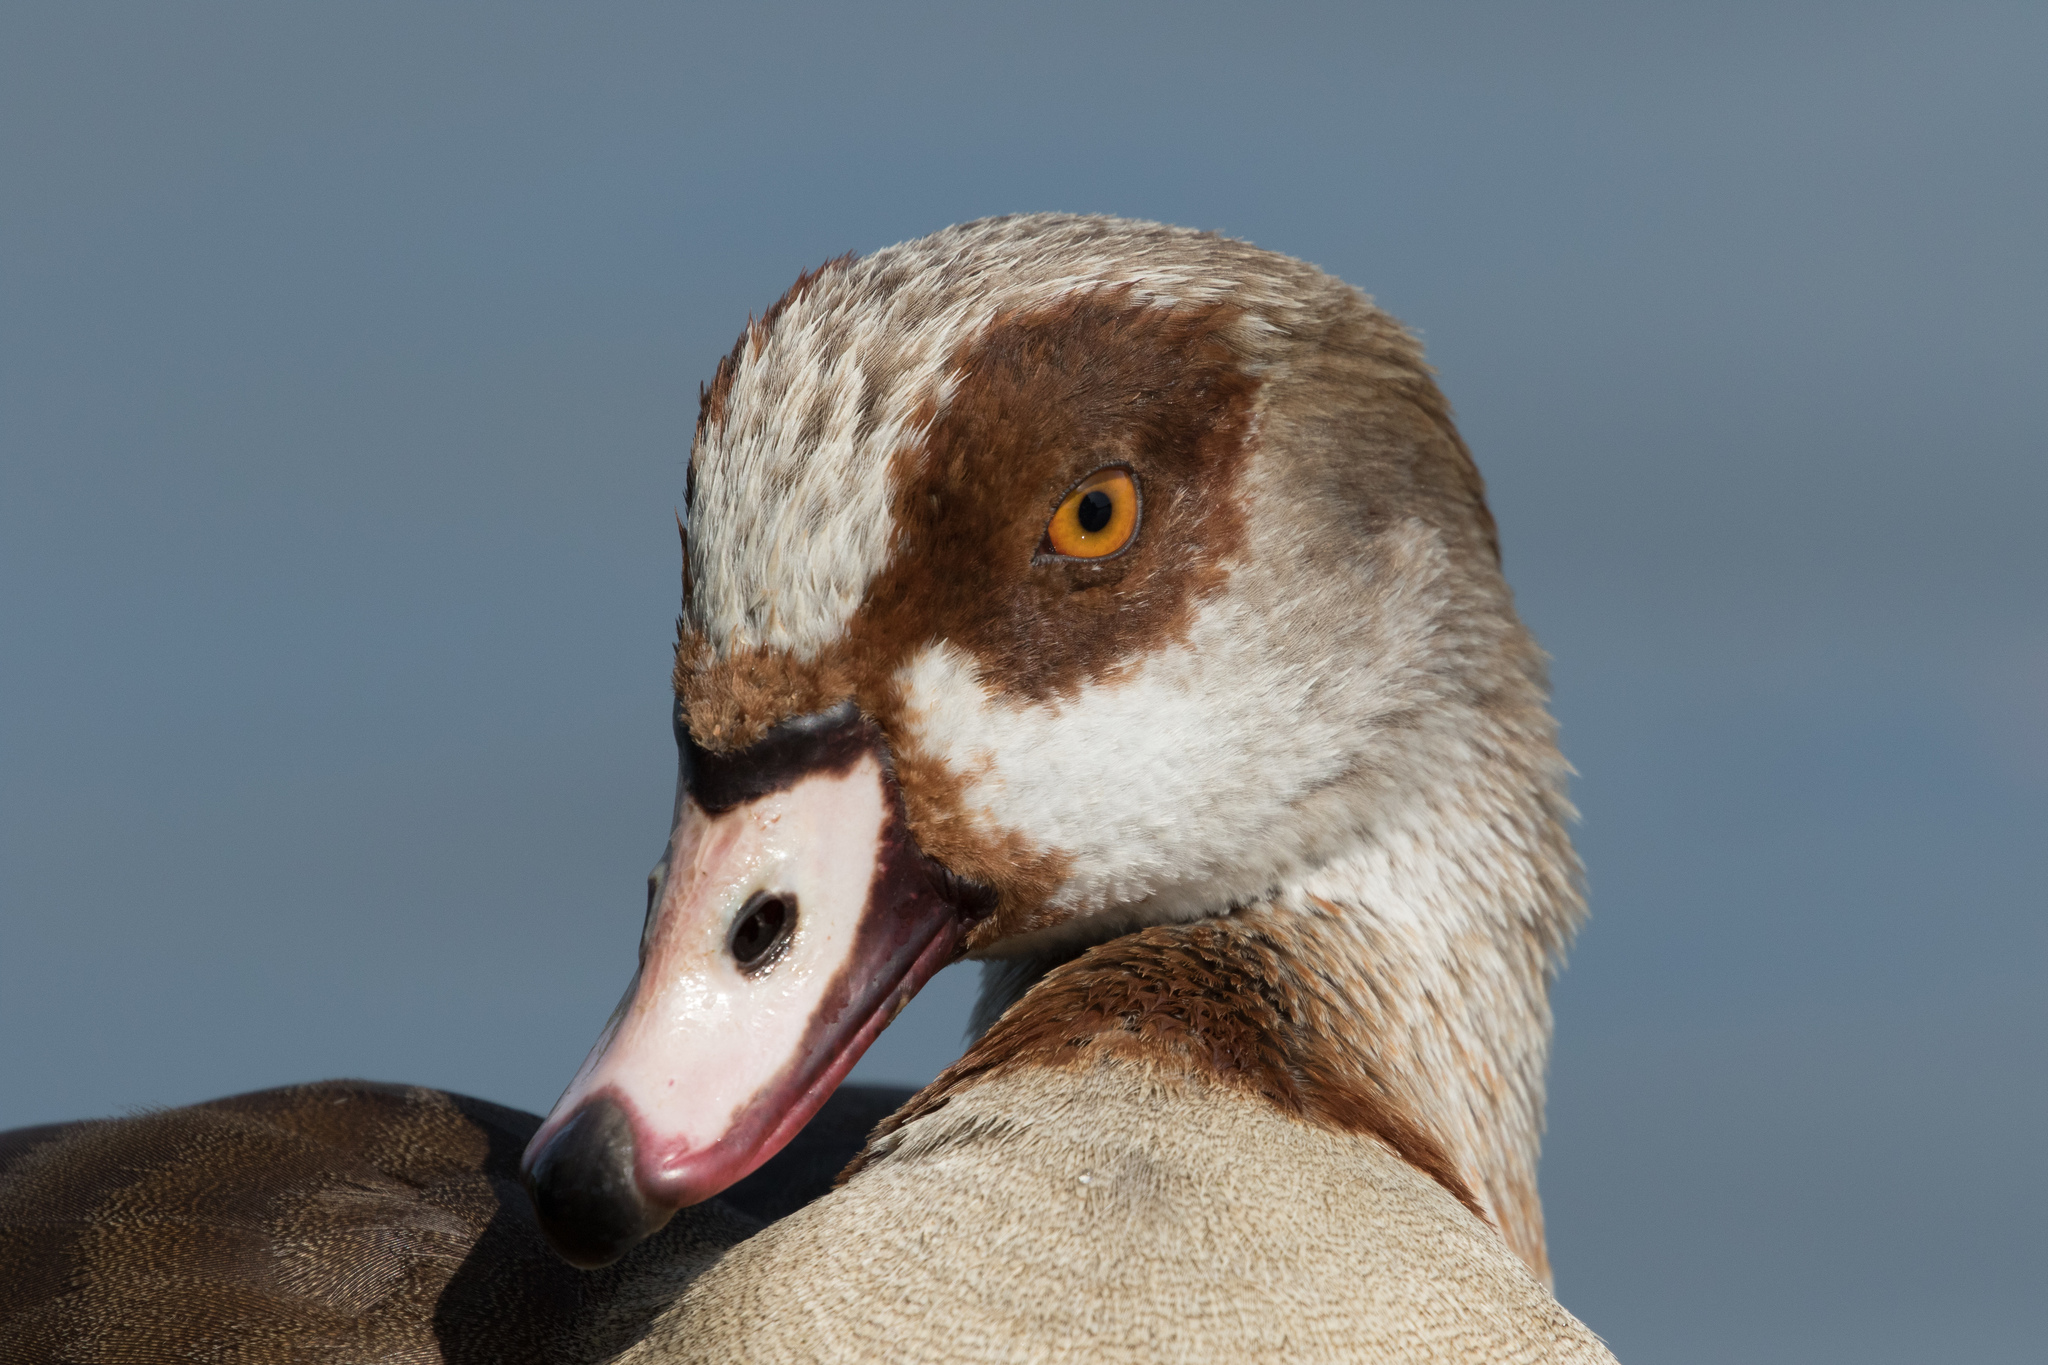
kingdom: Animalia
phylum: Chordata
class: Aves
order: Anseriformes
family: Anatidae
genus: Alopochen
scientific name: Alopochen aegyptiaca
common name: Egyptian goose
